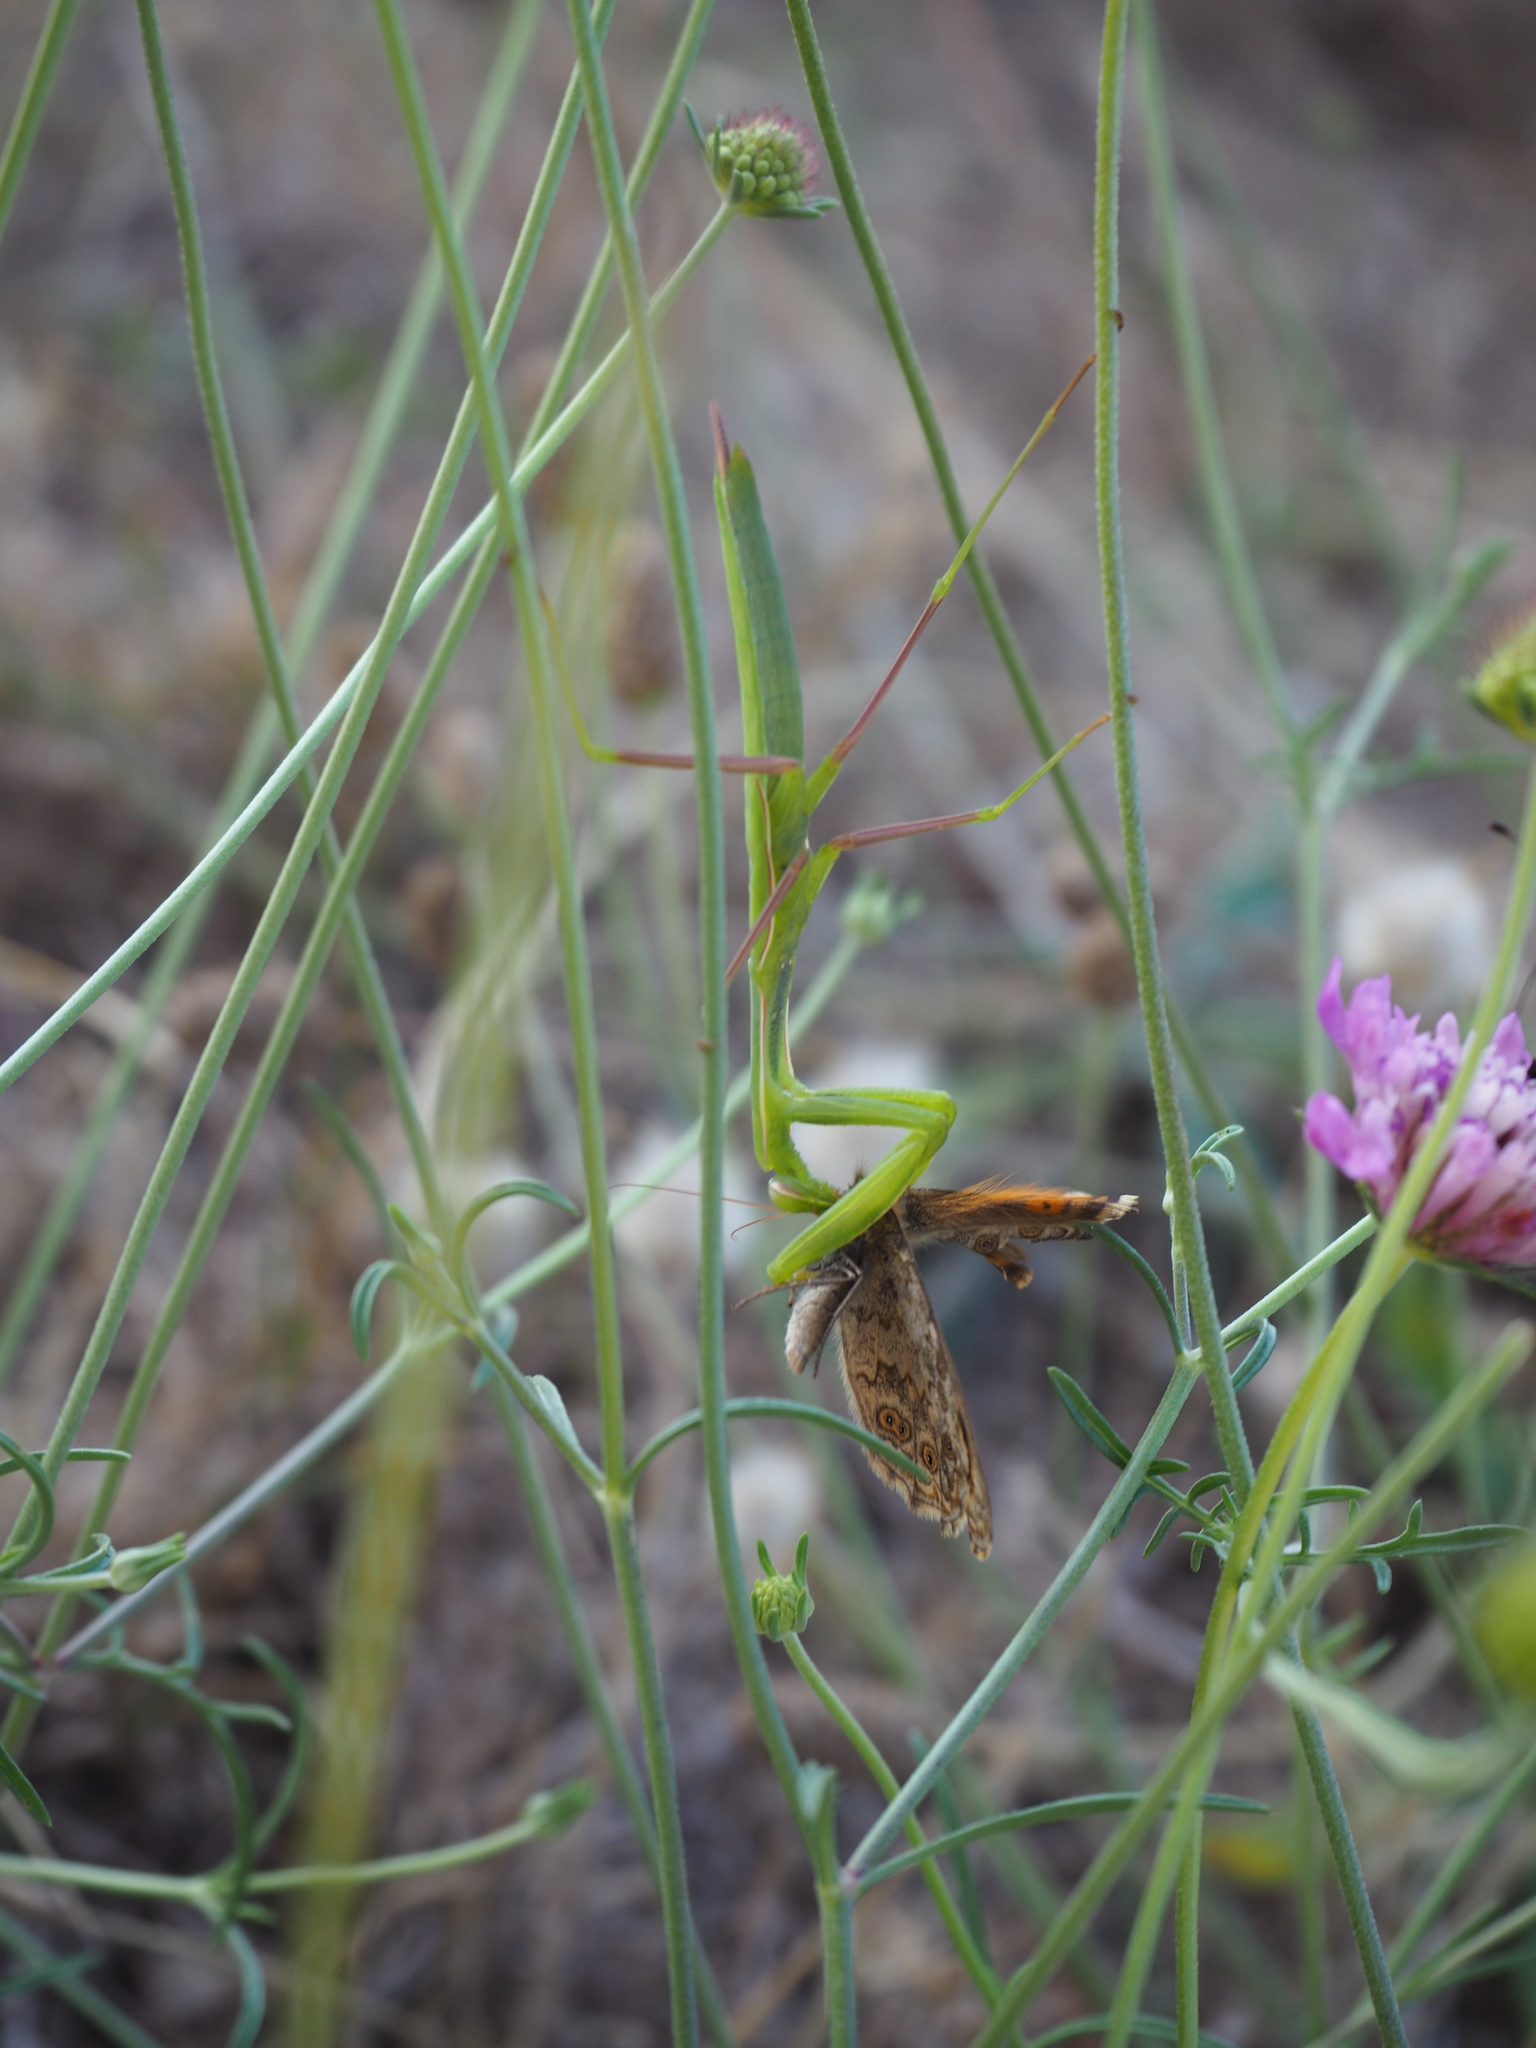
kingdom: Animalia
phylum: Arthropoda
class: Insecta
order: Lepidoptera
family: Nymphalidae
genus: Pararge
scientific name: Pararge Lasiommata megera
